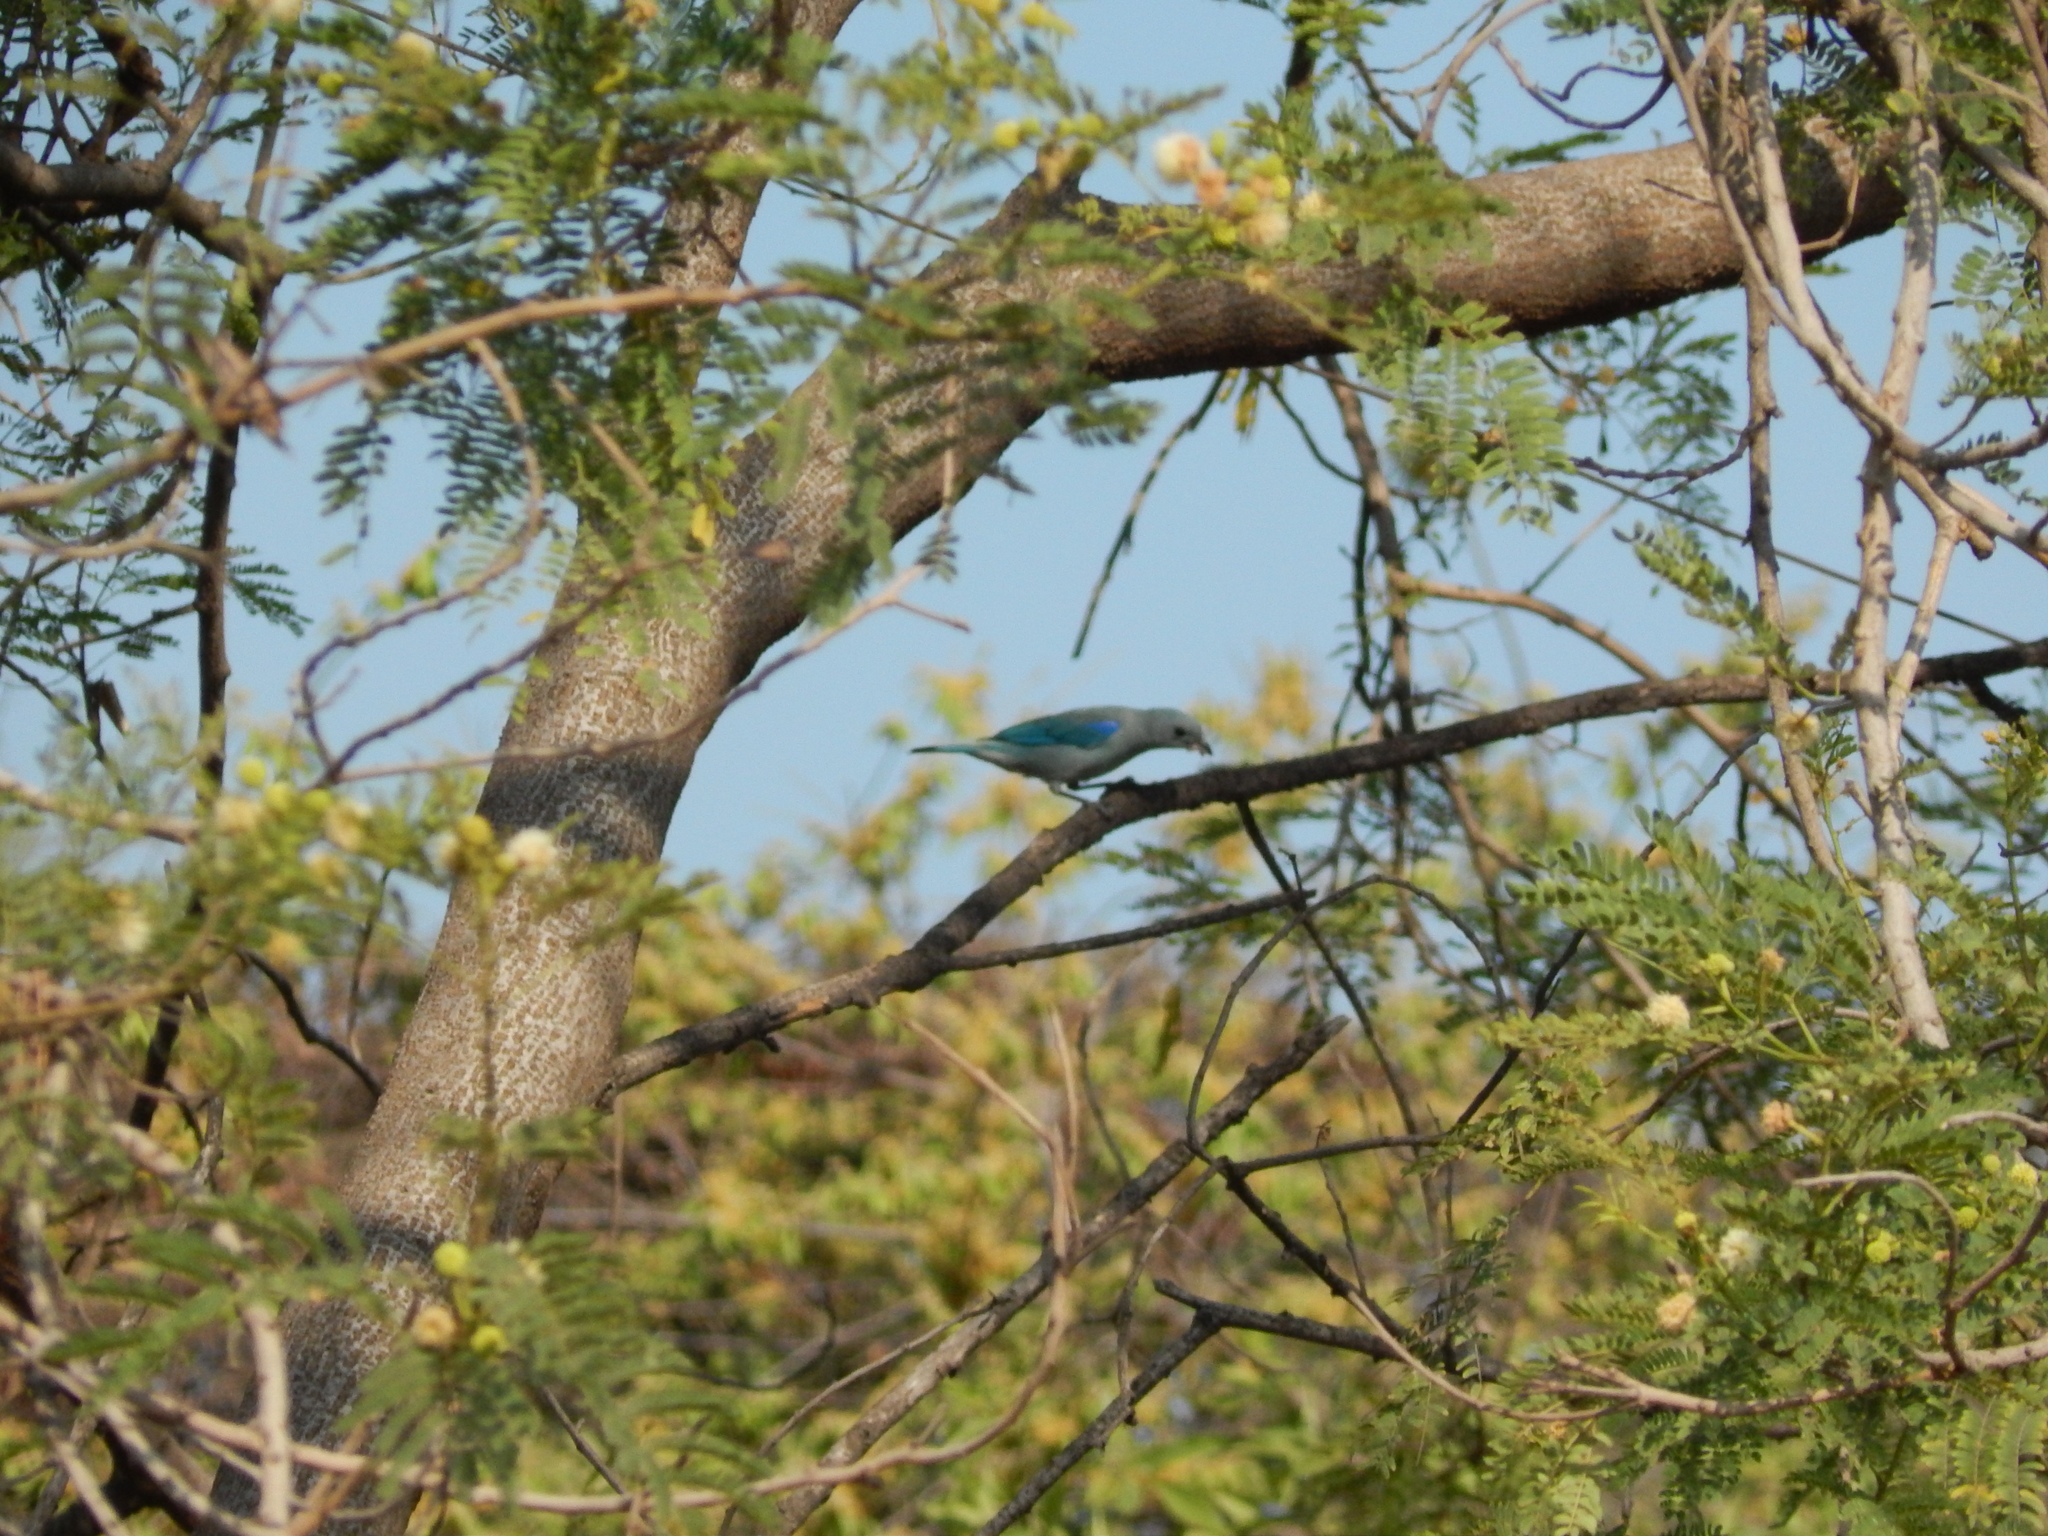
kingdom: Animalia
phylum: Chordata
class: Aves
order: Passeriformes
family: Thraupidae
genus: Thraupis
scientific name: Thraupis episcopus
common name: Blue-grey tanager
